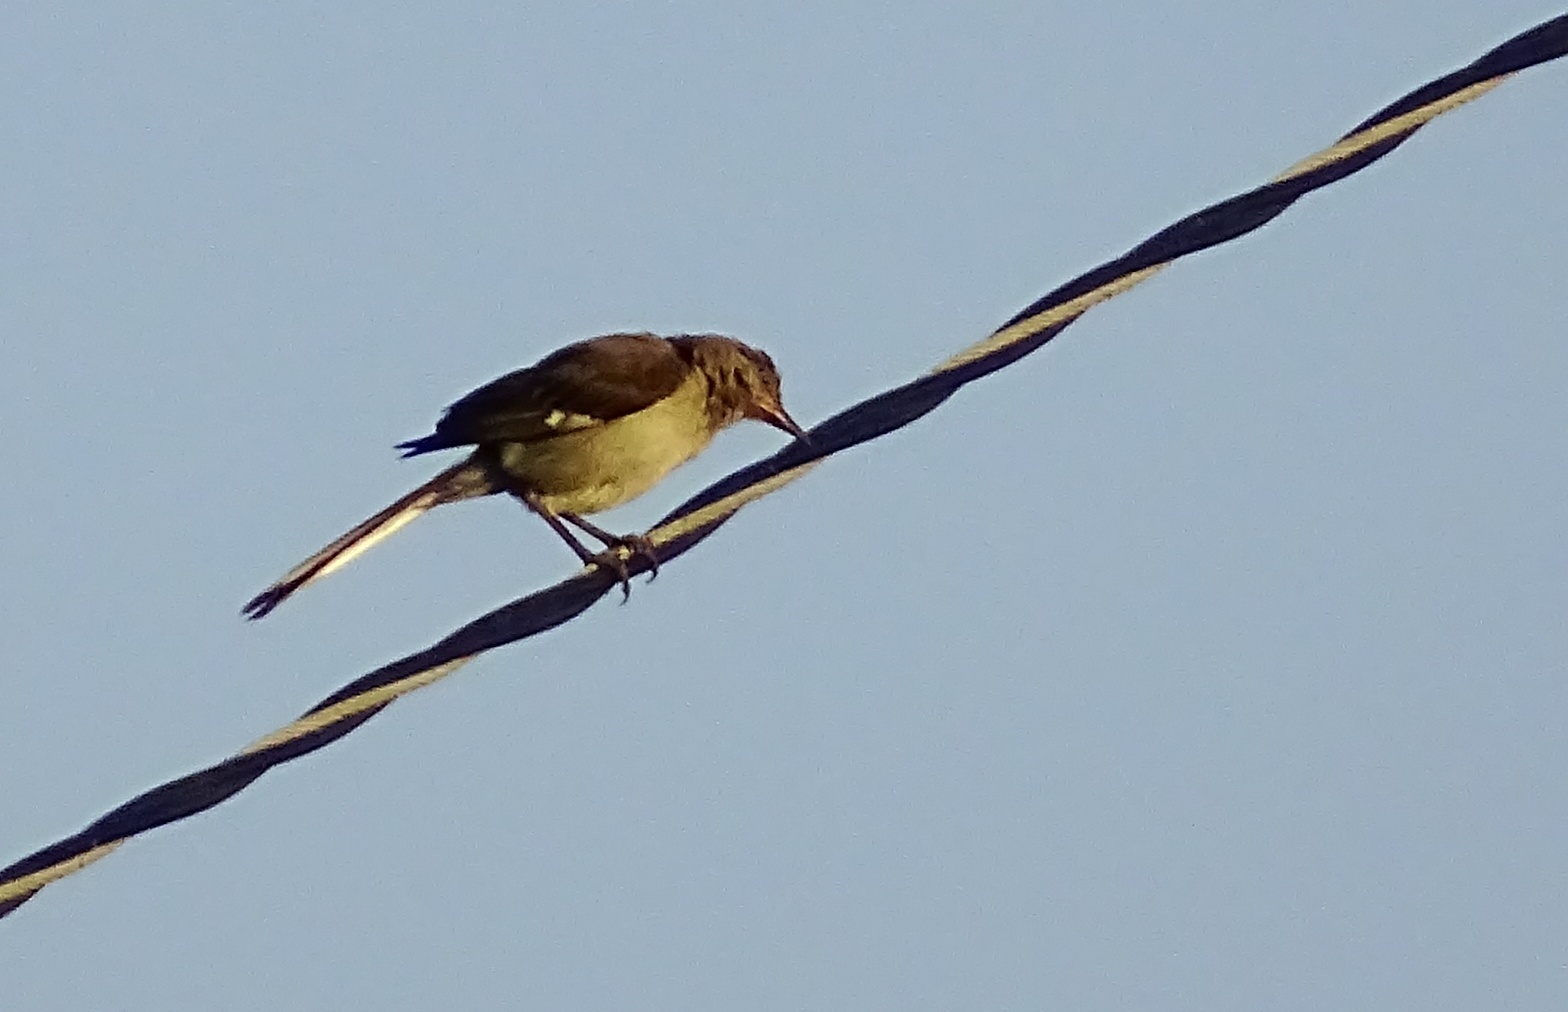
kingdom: Animalia
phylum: Chordata
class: Aves
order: Passeriformes
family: Mimidae
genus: Mimus
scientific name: Mimus polyglottos
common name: Northern mockingbird
